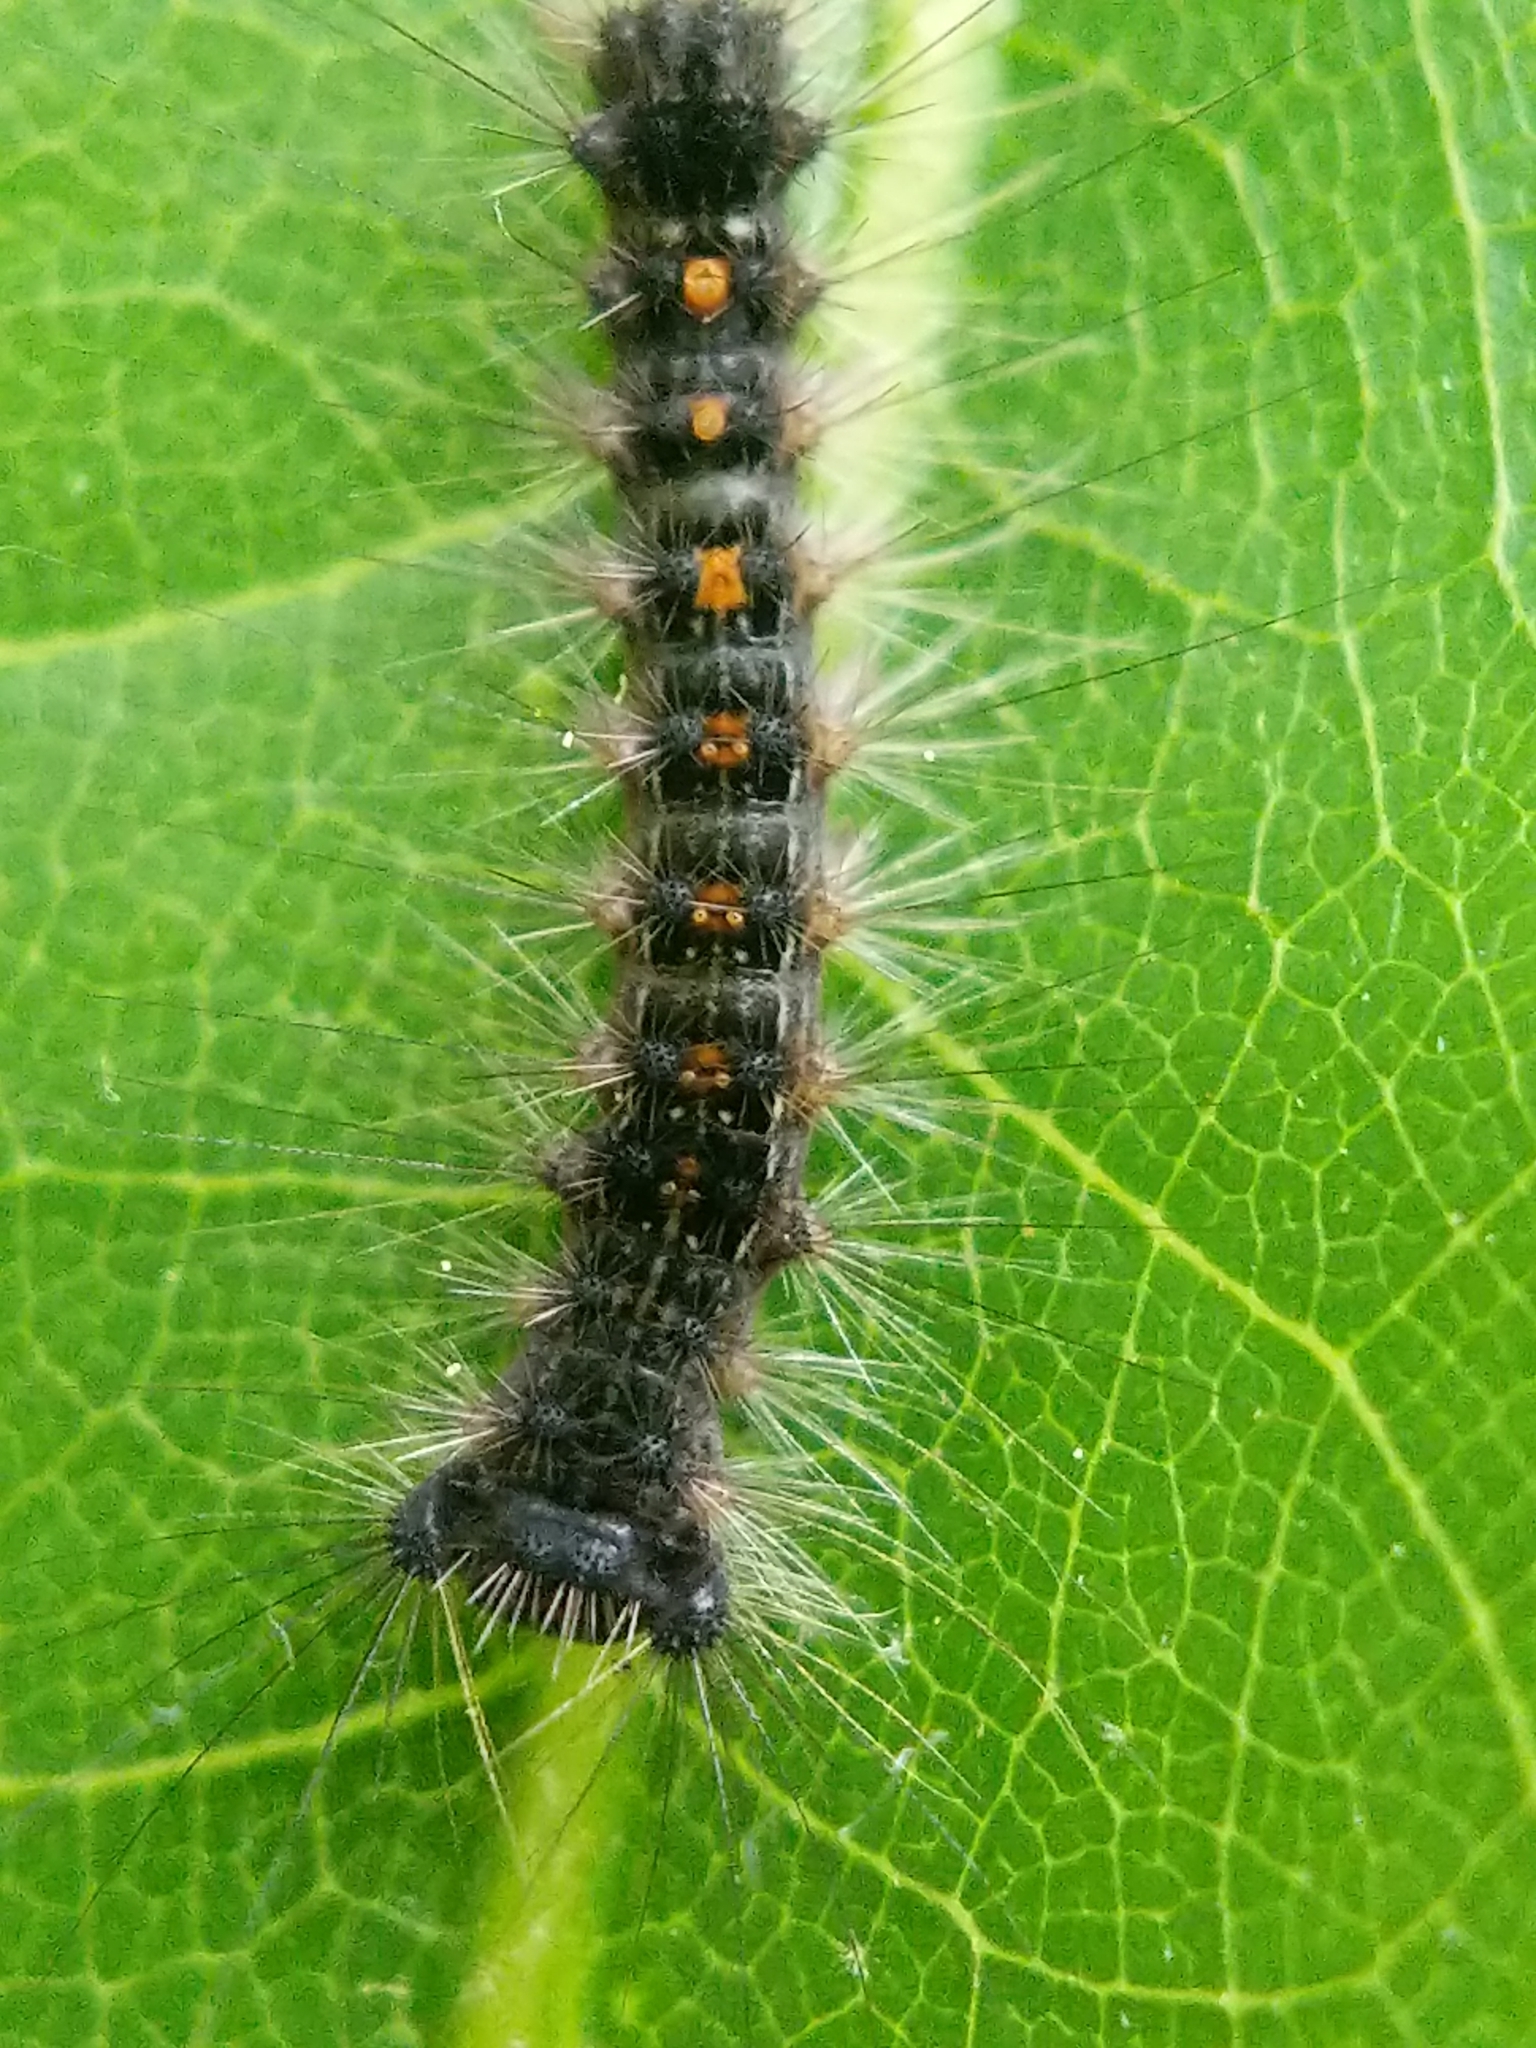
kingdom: Animalia
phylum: Arthropoda
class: Insecta
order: Lepidoptera
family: Erebidae
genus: Lymantria
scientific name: Lymantria dispar
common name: Gypsy moth
